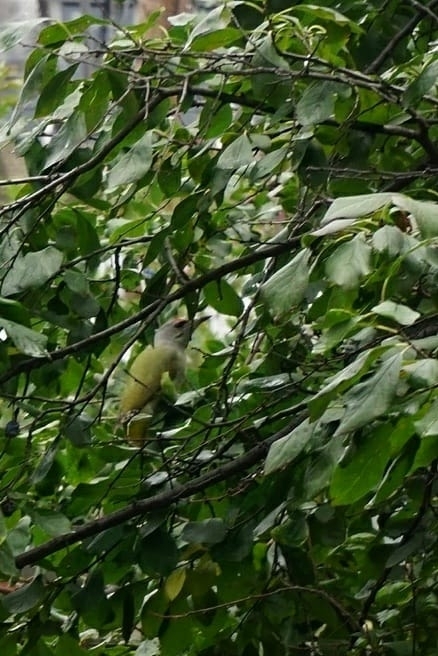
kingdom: Animalia
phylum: Chordata
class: Aves
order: Piciformes
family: Picidae
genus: Picus
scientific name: Picus canus
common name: Grey-headed woodpecker
